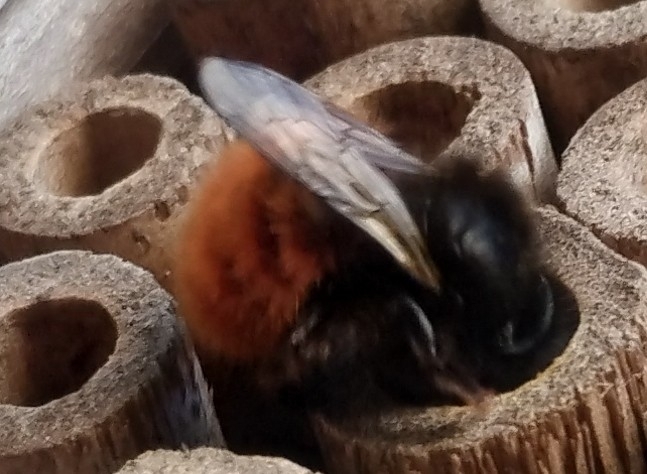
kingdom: Animalia
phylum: Arthropoda
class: Insecta
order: Hymenoptera
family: Megachilidae
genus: Osmia
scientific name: Osmia cornuta
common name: Mason bee
